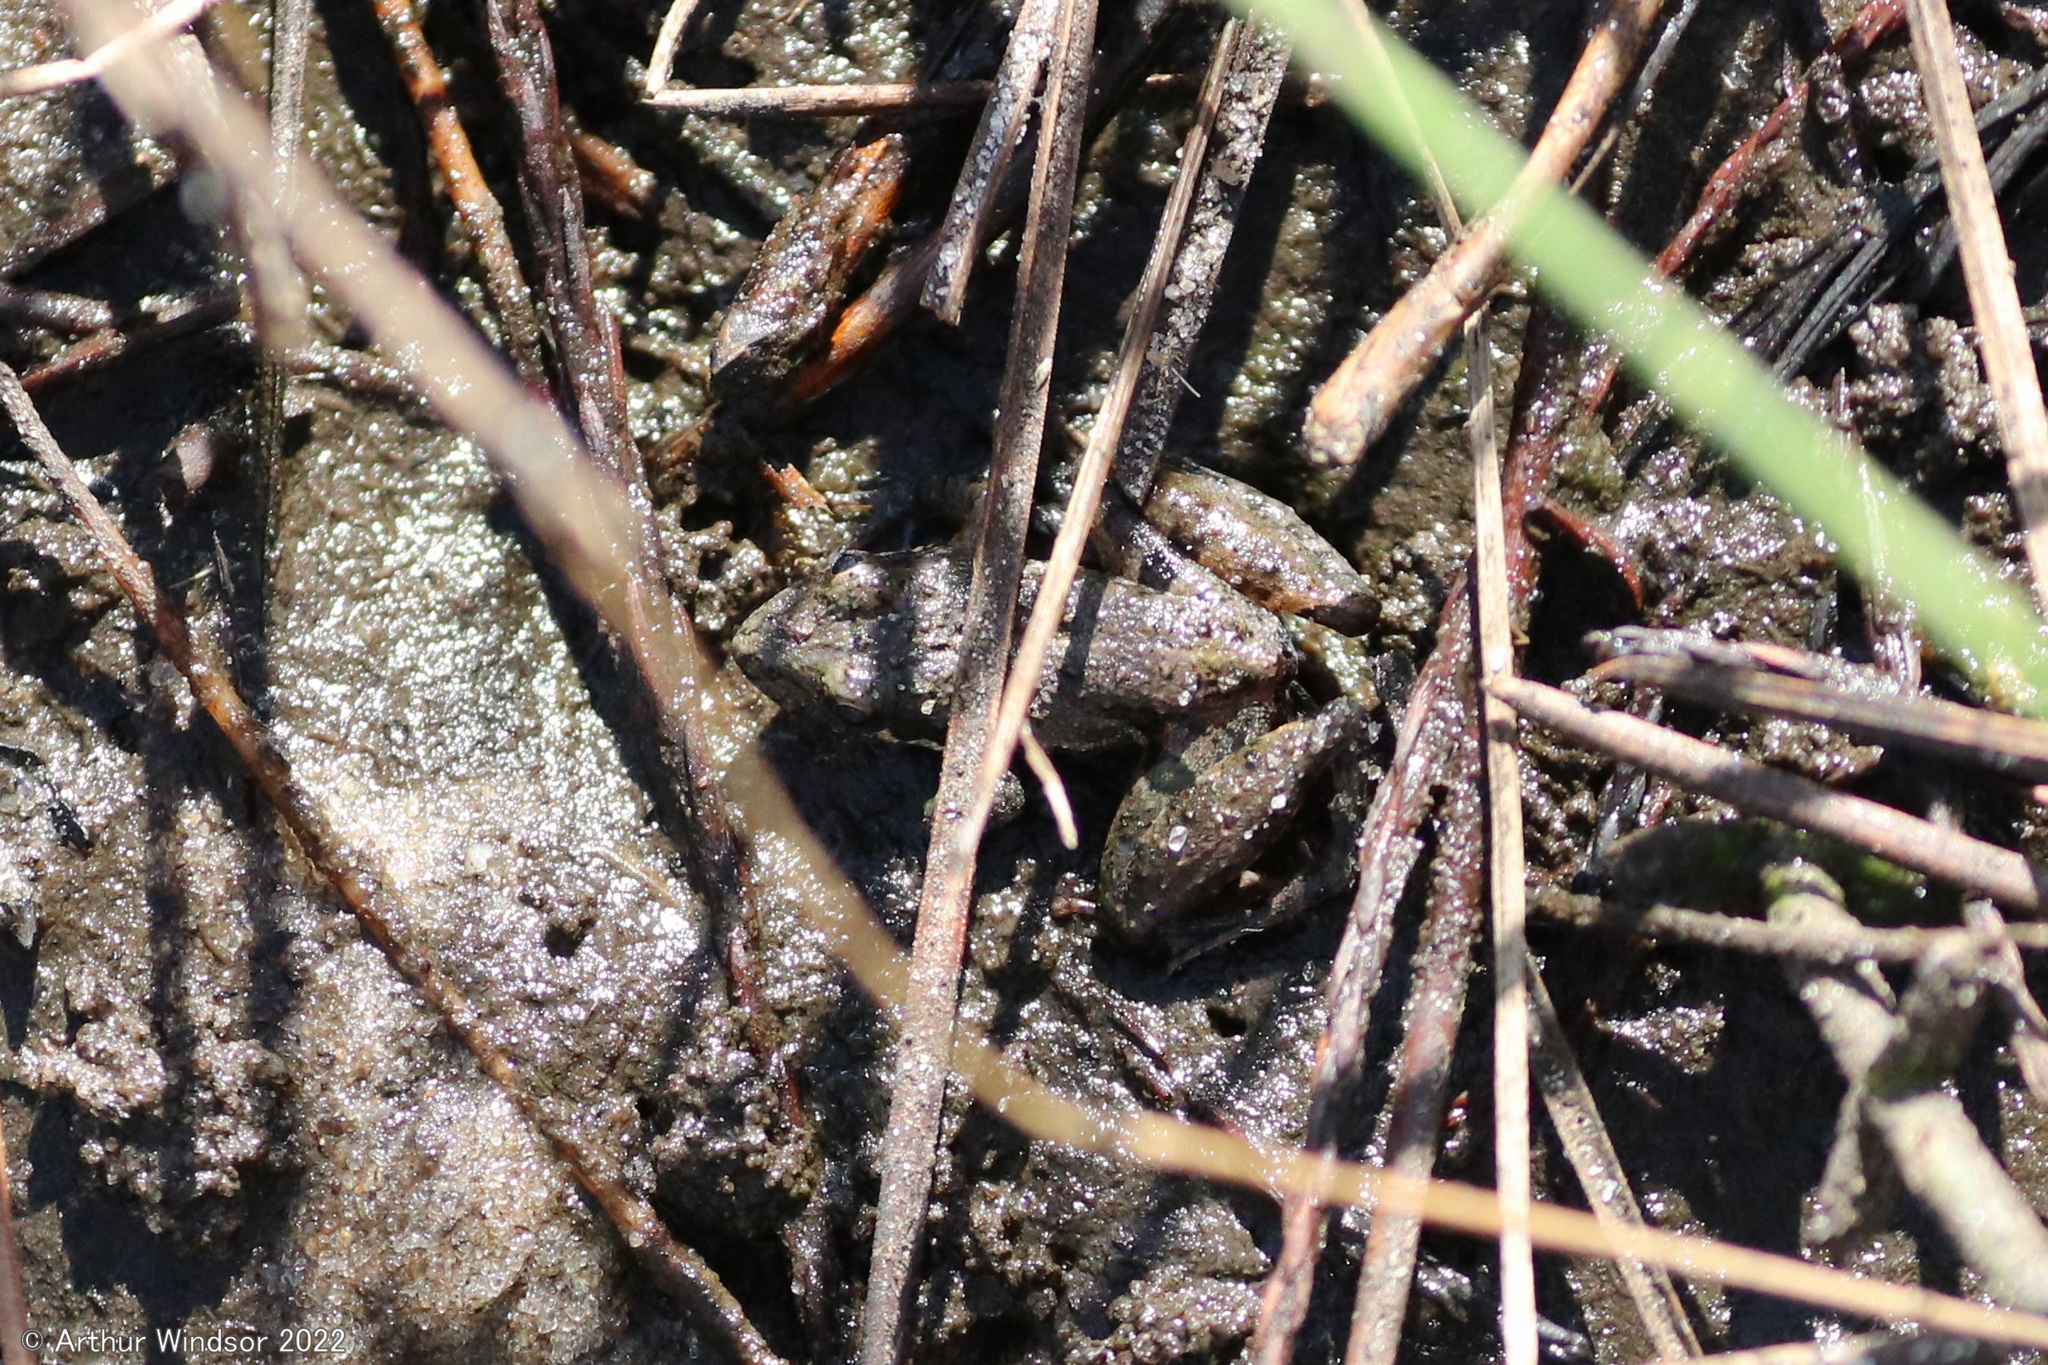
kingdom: Animalia
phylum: Chordata
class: Amphibia
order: Anura
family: Hylidae
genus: Acris
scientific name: Acris gryllus
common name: Southern cricket frog
